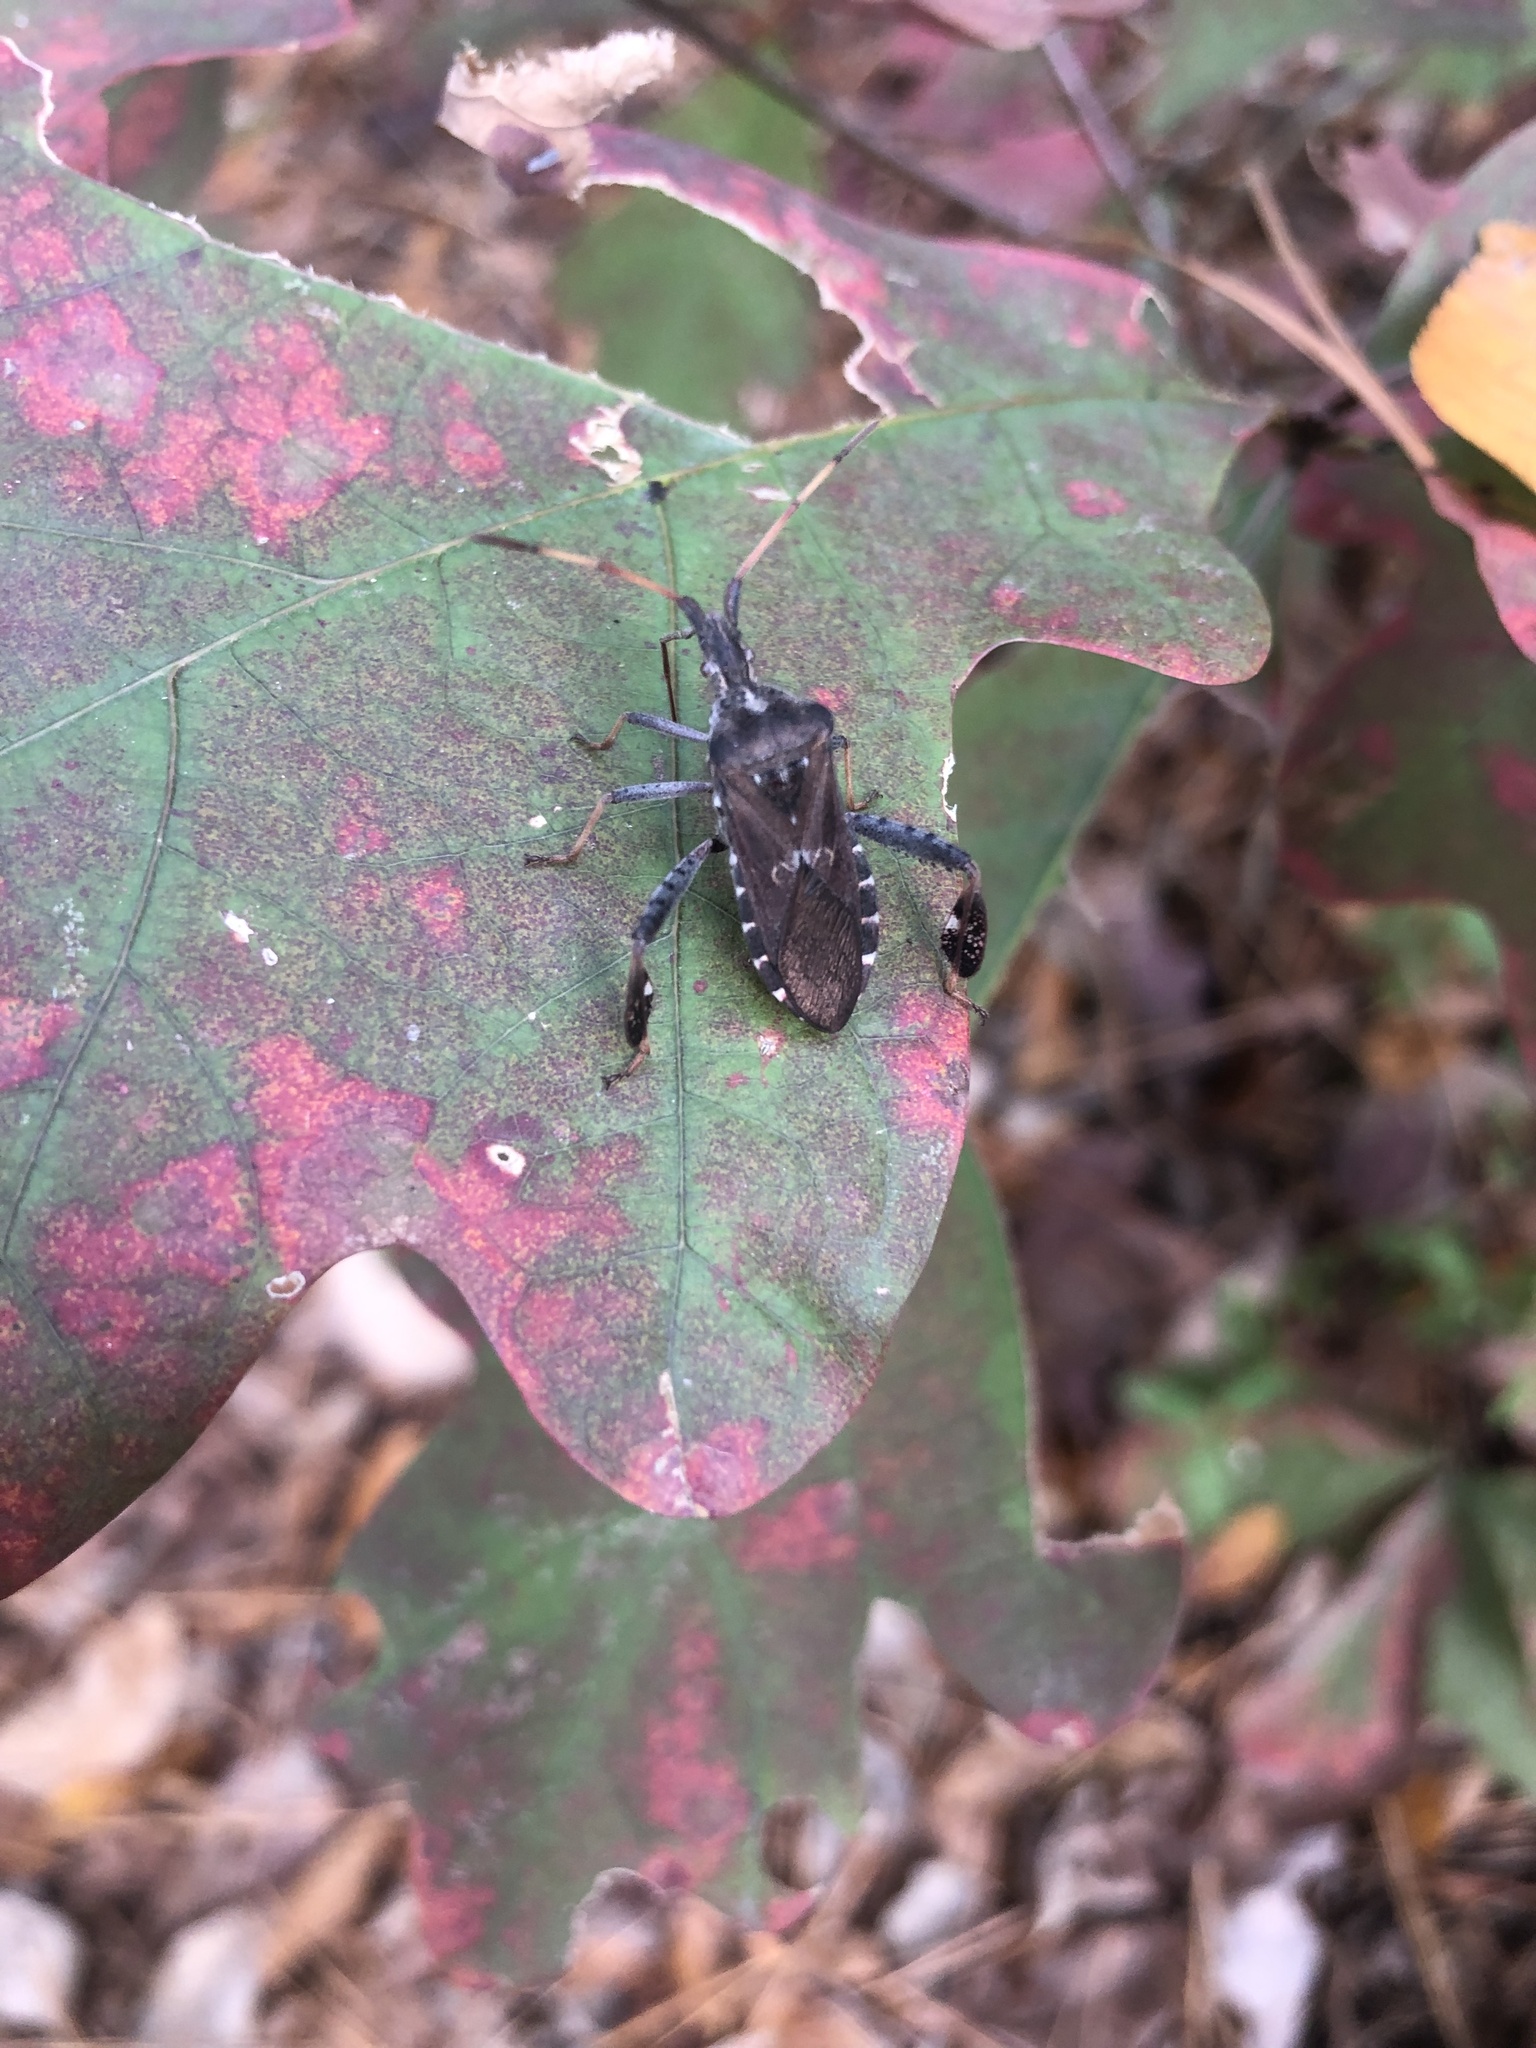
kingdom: Animalia
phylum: Arthropoda
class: Insecta
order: Hemiptera
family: Coreidae
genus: Leptoglossus
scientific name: Leptoglossus corculus
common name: Southern pine seed bug
